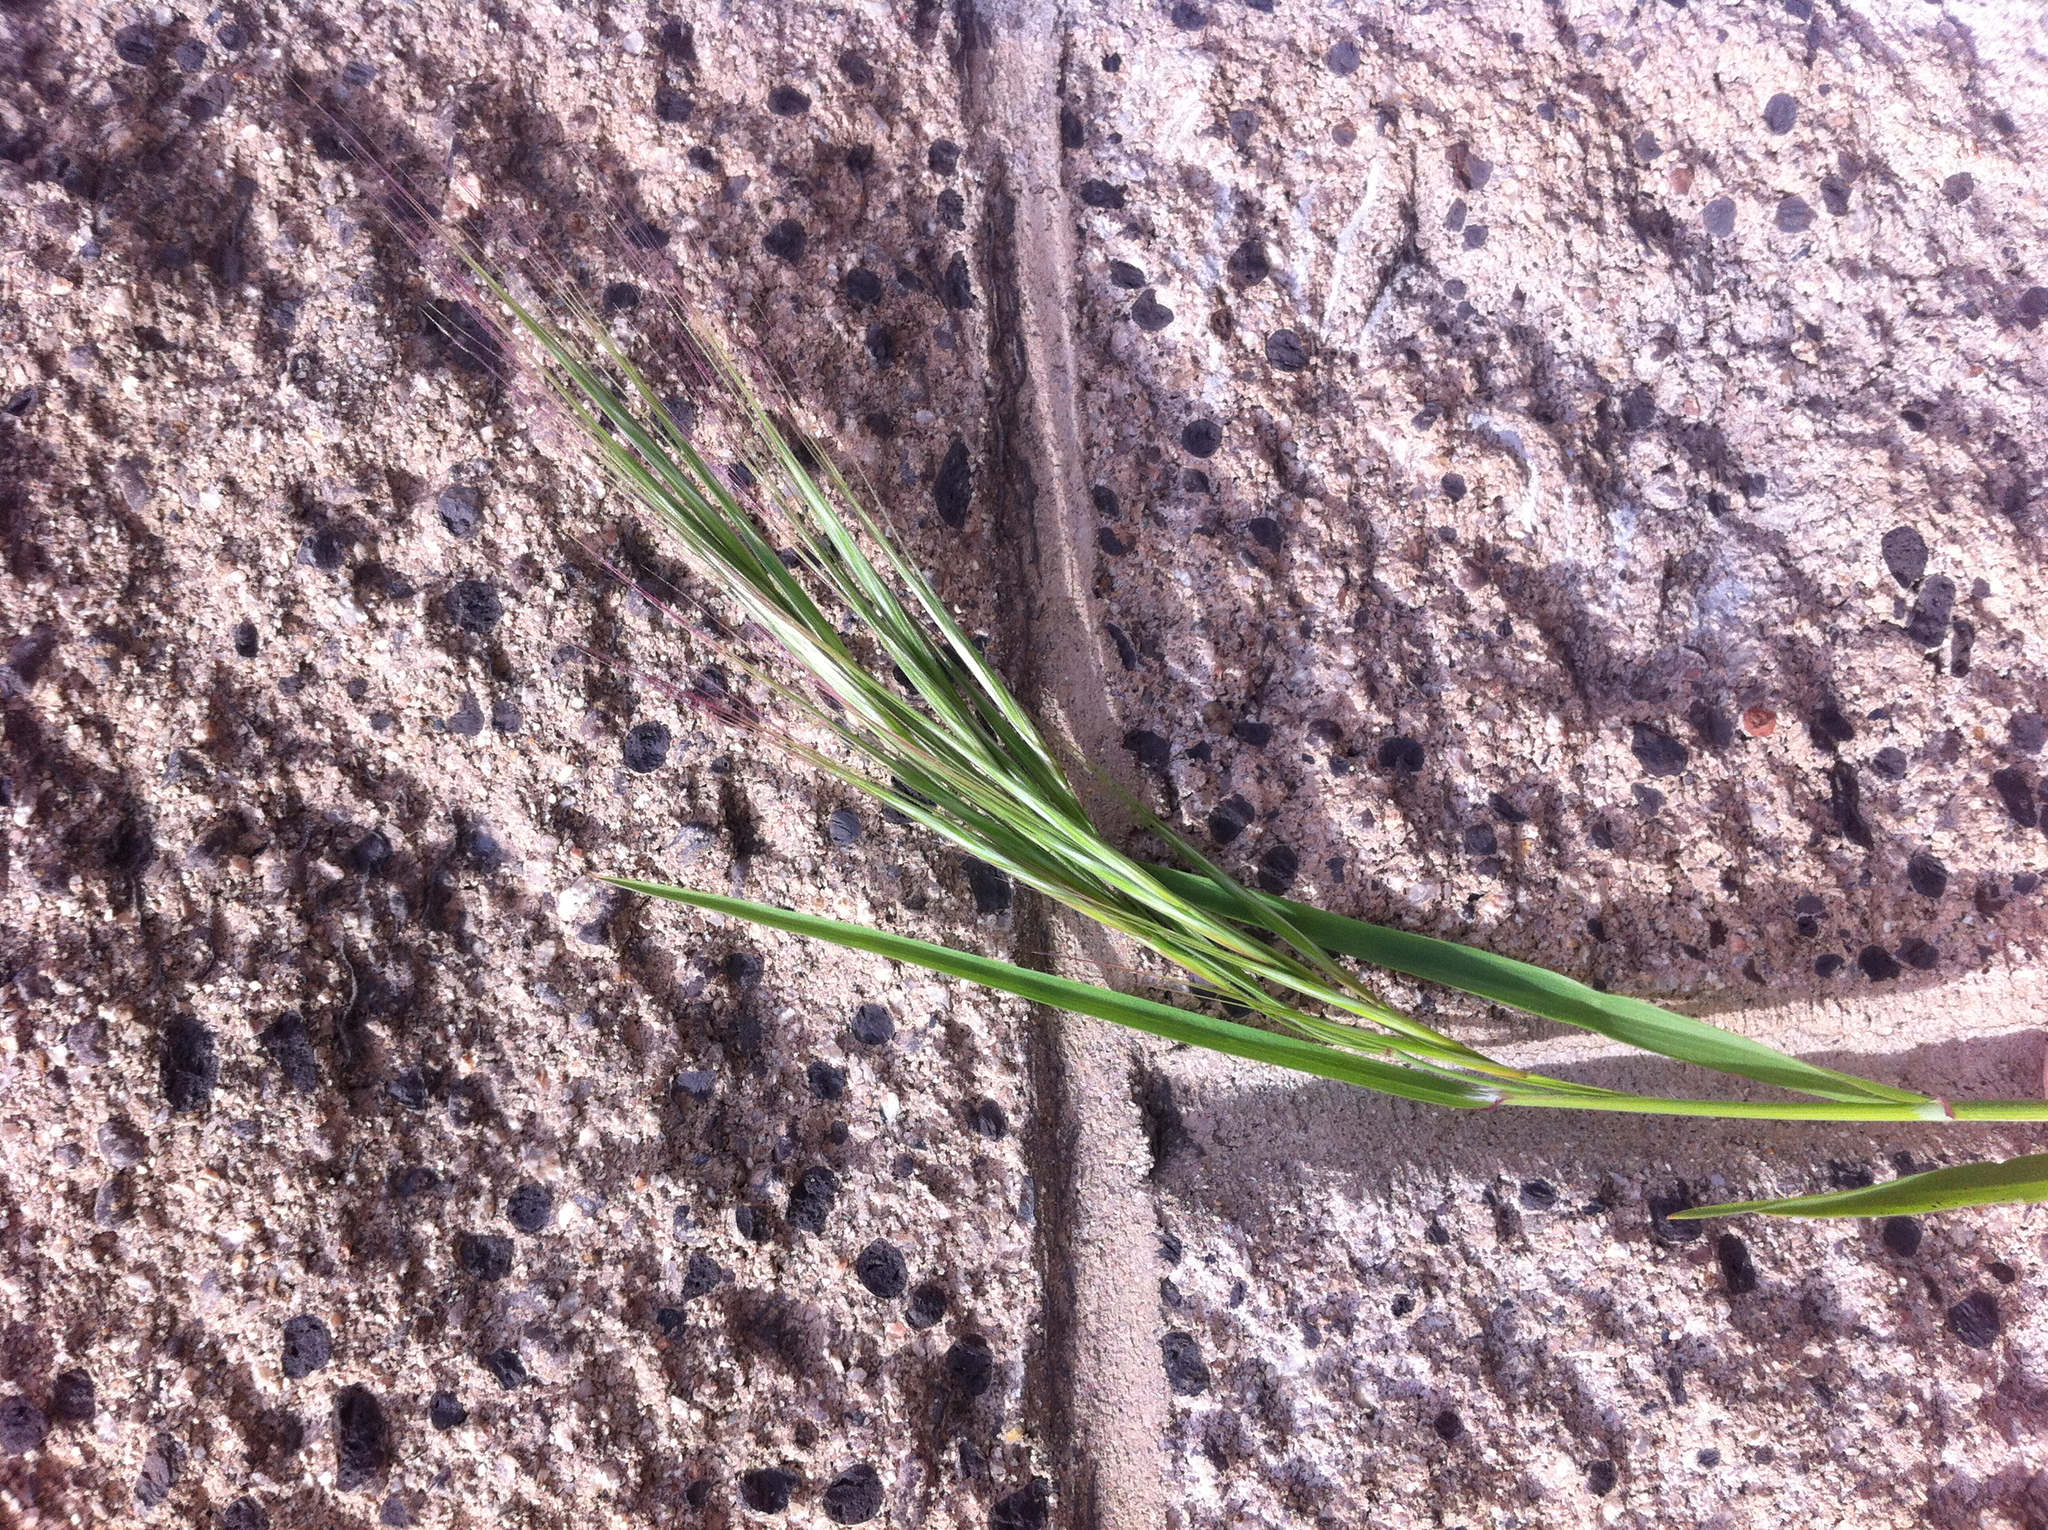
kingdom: Plantae
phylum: Tracheophyta
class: Liliopsida
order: Poales
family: Poaceae
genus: Bromus
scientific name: Bromus diandrus
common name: Ripgut brome
